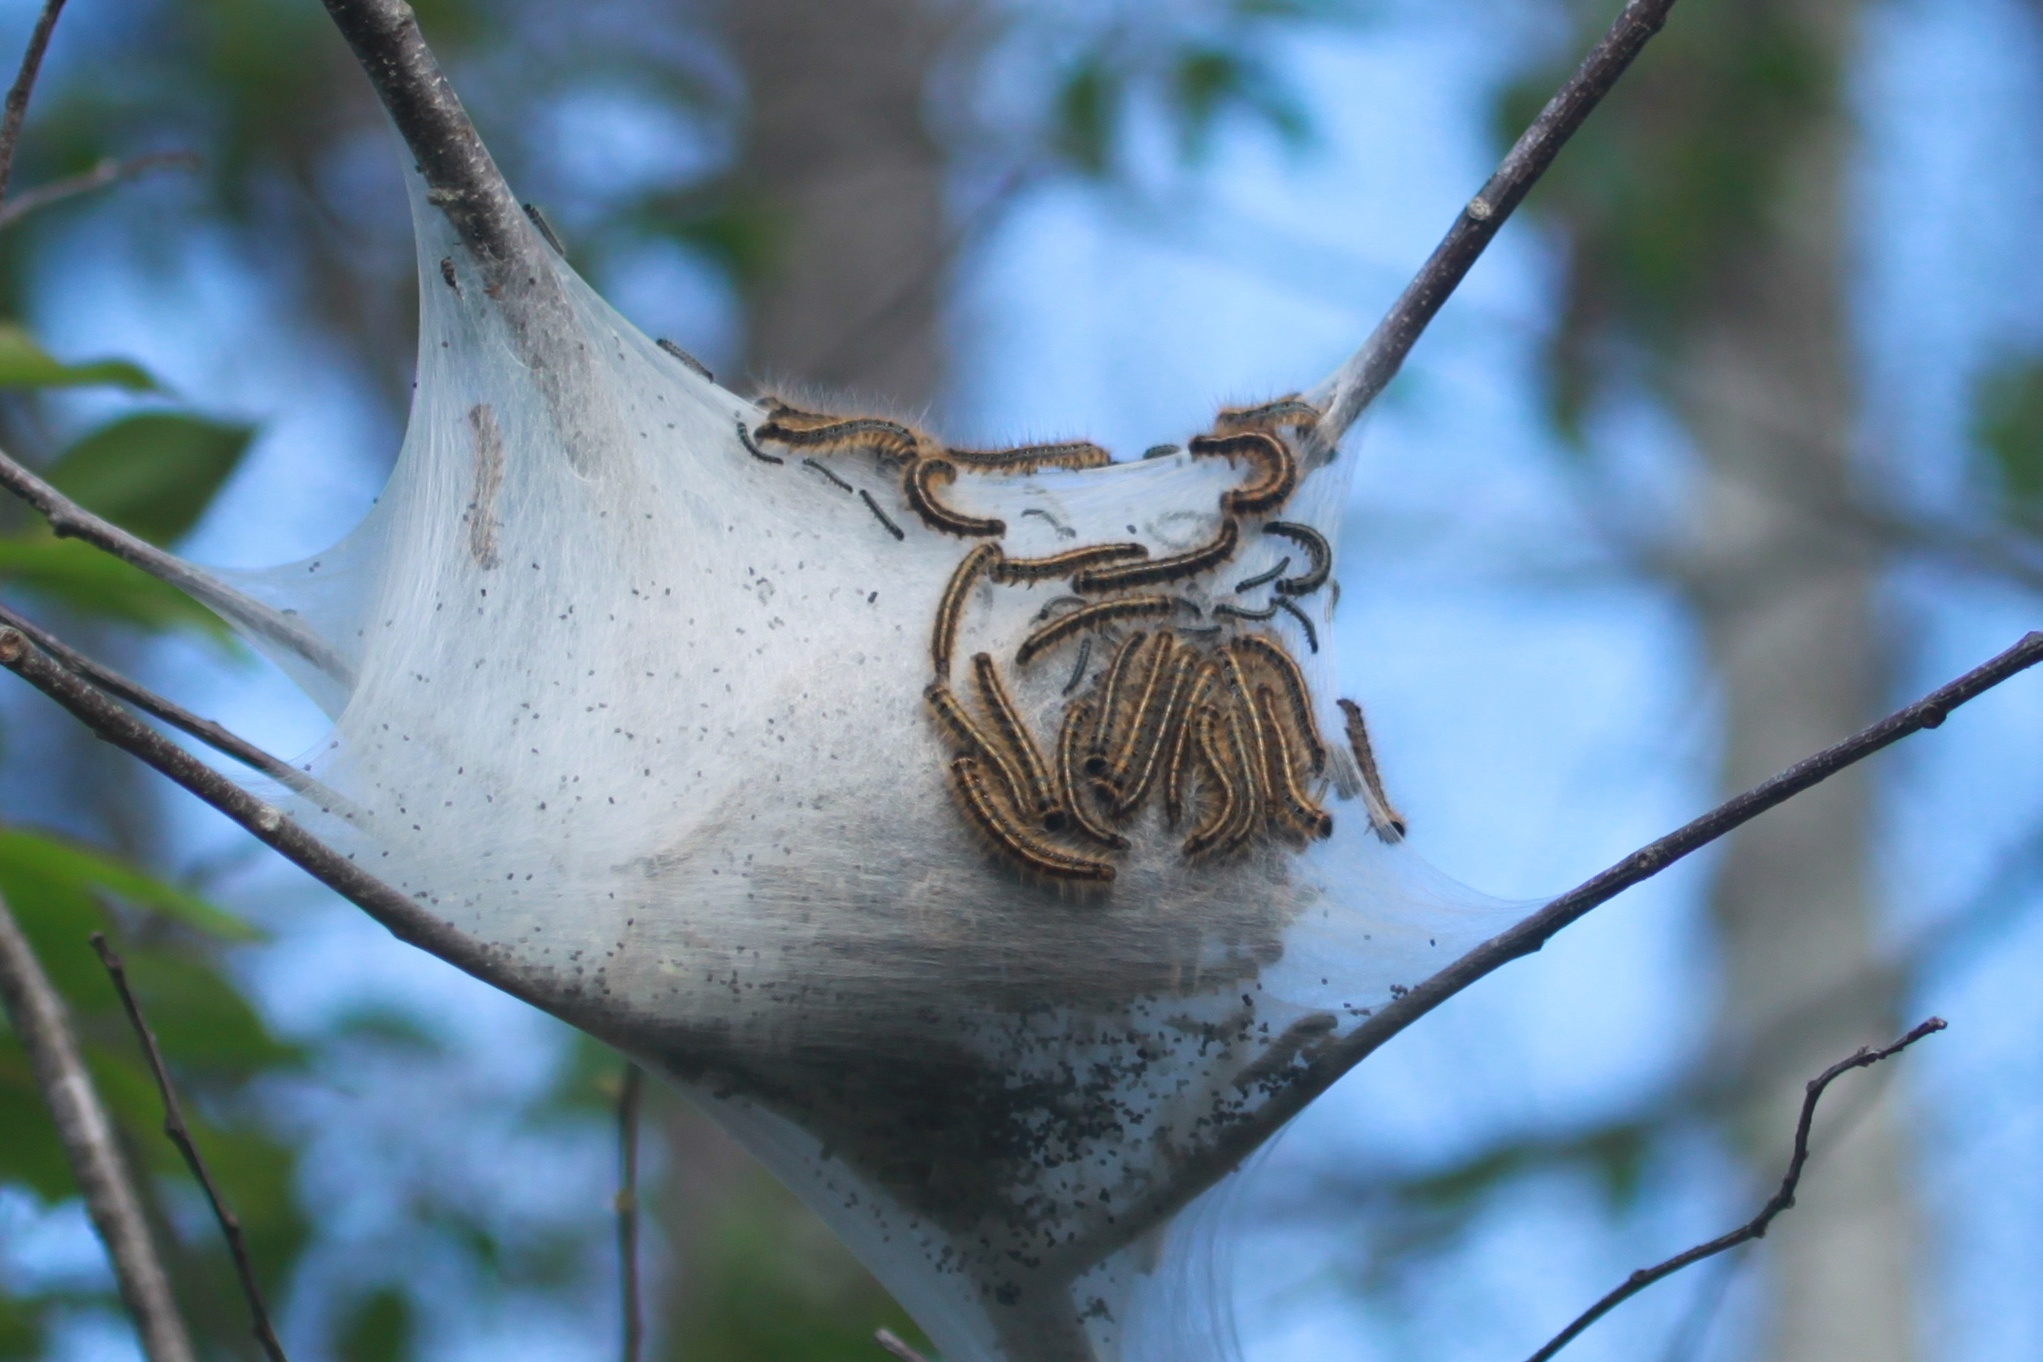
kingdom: Animalia
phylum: Arthropoda
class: Insecta
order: Lepidoptera
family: Lasiocampidae
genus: Malacosoma
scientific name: Malacosoma americana
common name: Eastern tent caterpillar moth
